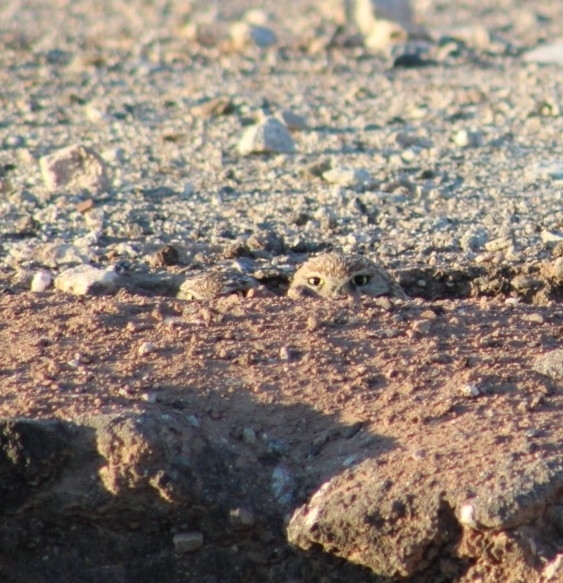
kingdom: Animalia
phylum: Chordata
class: Aves
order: Strigiformes
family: Strigidae
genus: Athene
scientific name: Athene cunicularia
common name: Burrowing owl
